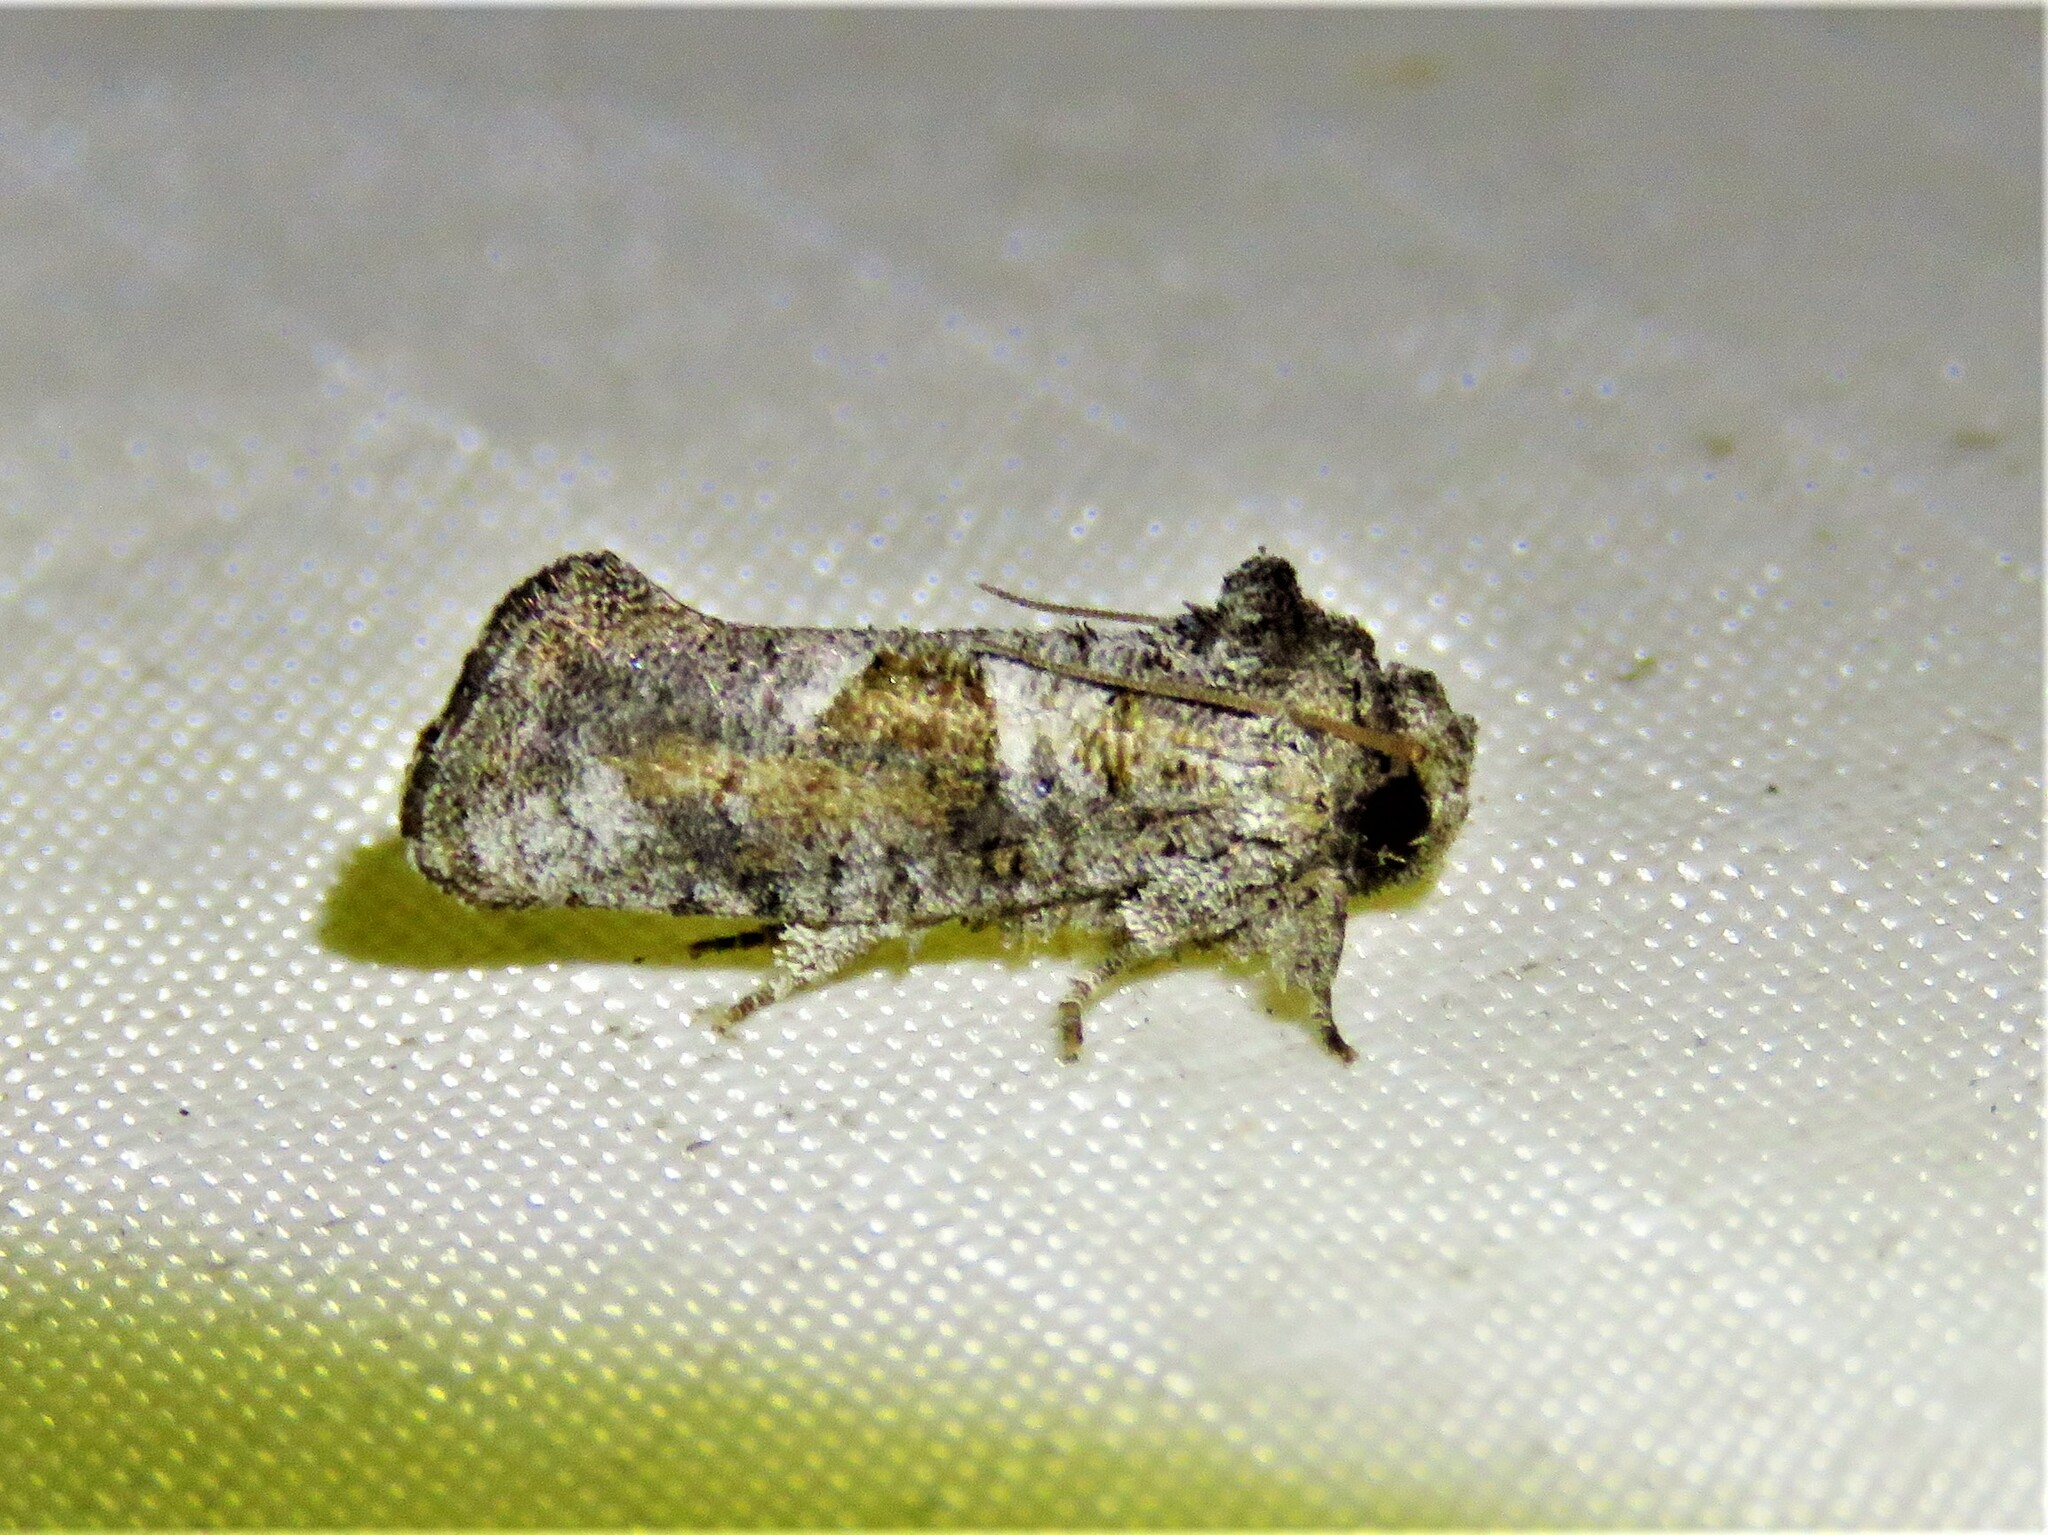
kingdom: Animalia
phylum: Arthropoda
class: Insecta
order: Lepidoptera
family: Tineidae
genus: Acrolophus
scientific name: Acrolophus piger
